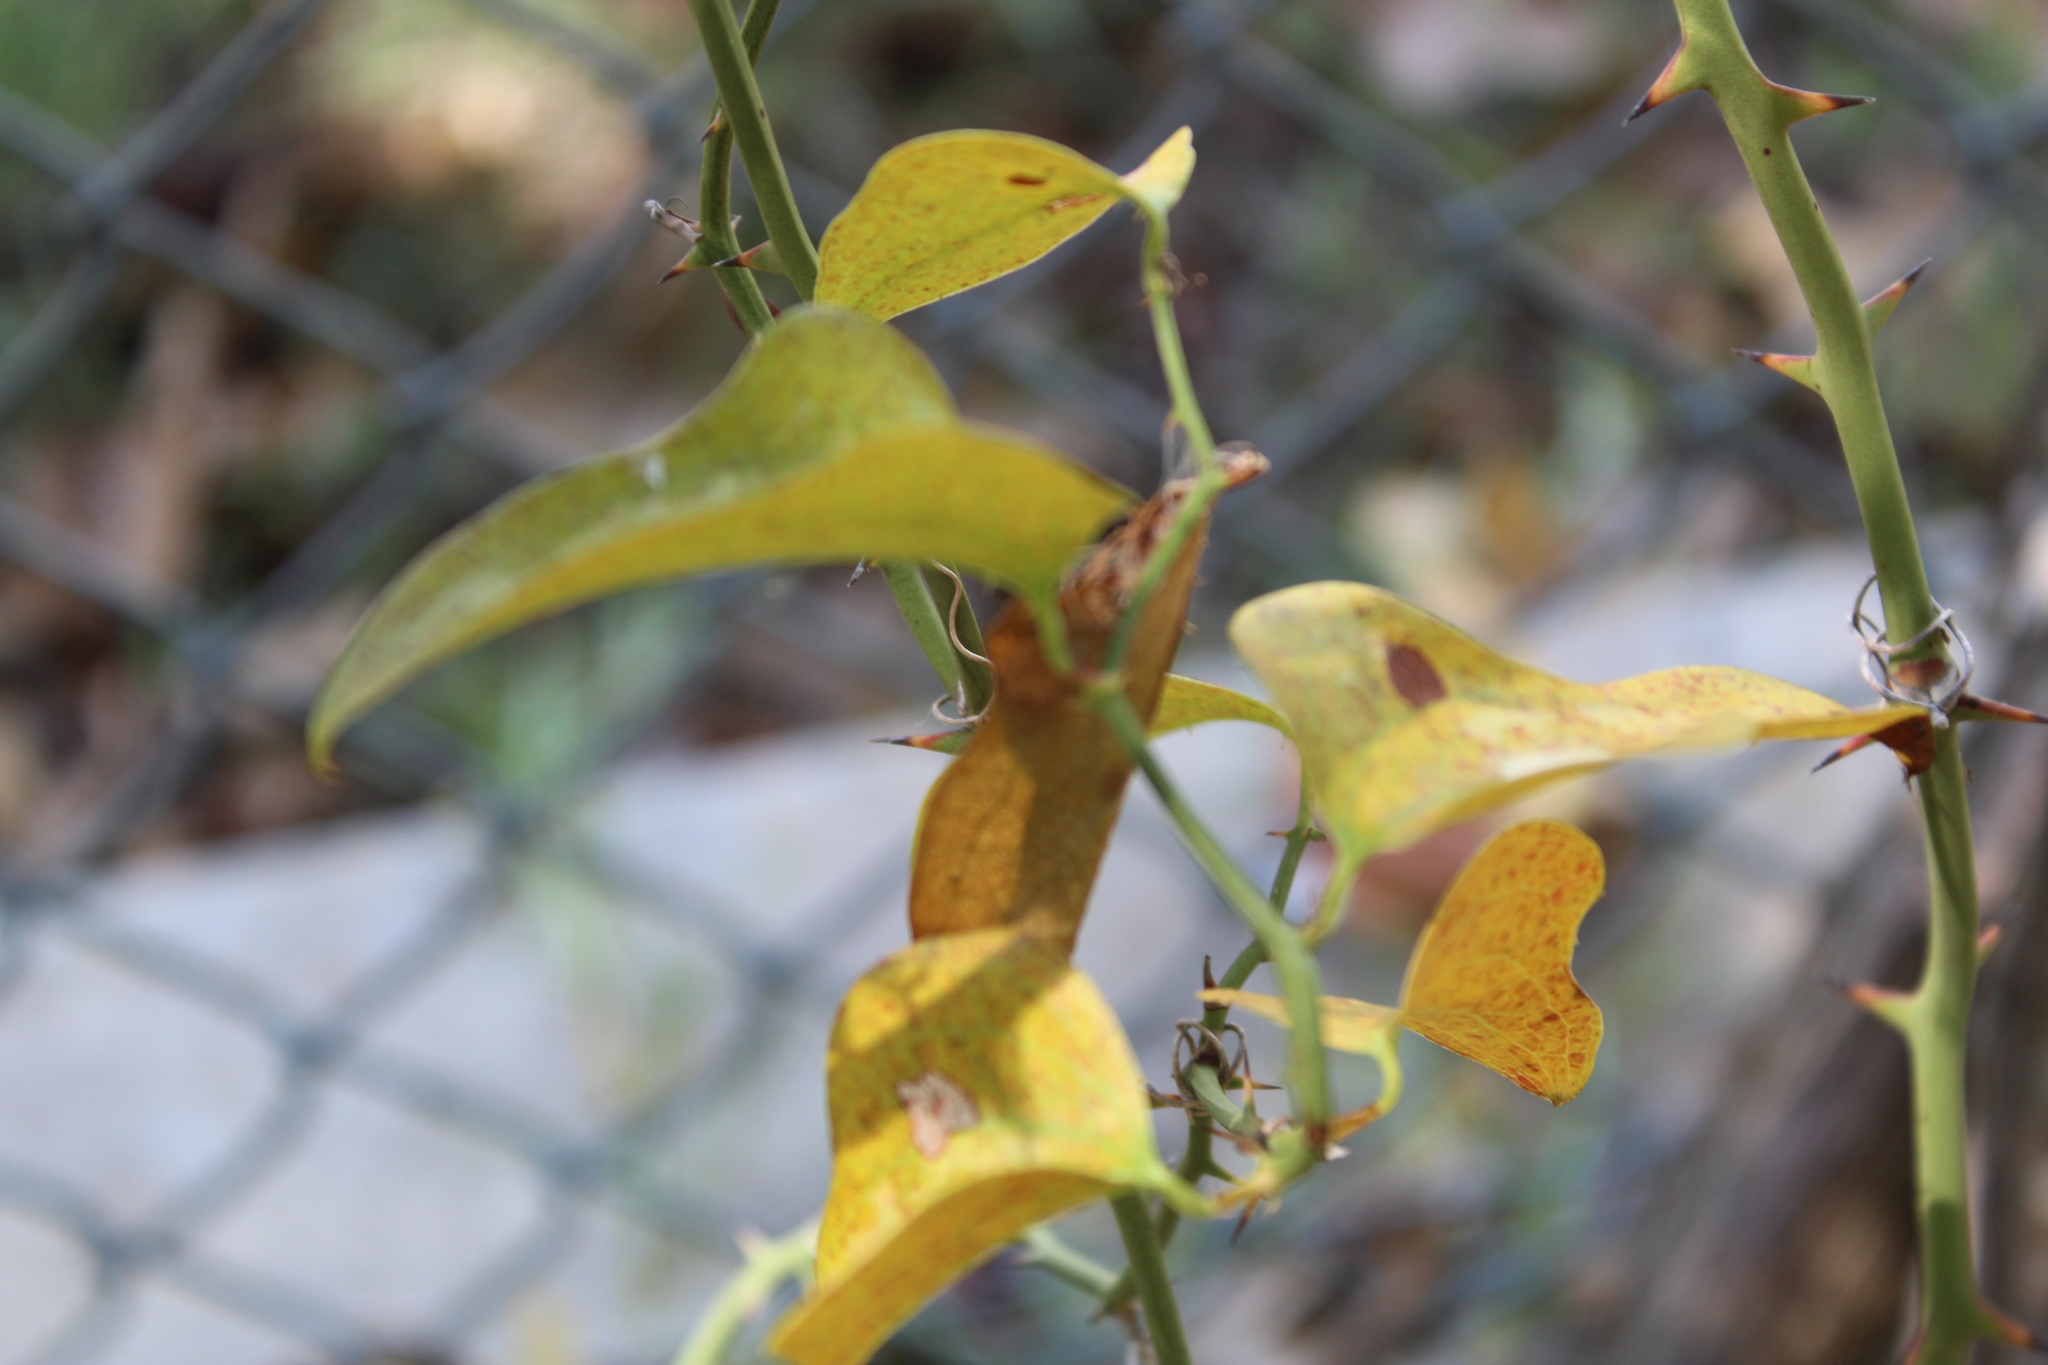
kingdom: Plantae
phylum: Tracheophyta
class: Liliopsida
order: Liliales
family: Smilacaceae
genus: Smilax
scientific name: Smilax bona-nox
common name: Catbrier
